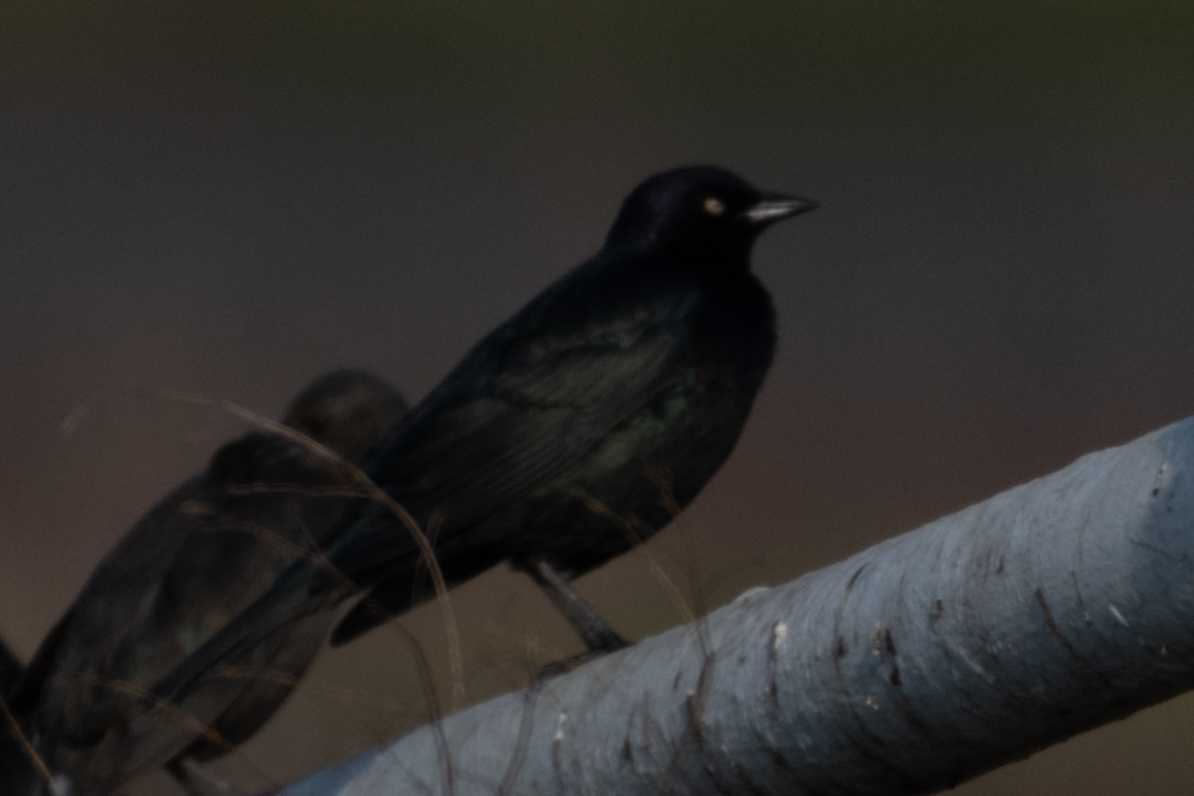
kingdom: Animalia
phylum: Chordata
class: Aves
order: Passeriformes
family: Icteridae
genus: Euphagus
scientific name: Euphagus cyanocephalus
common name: Brewer's blackbird
